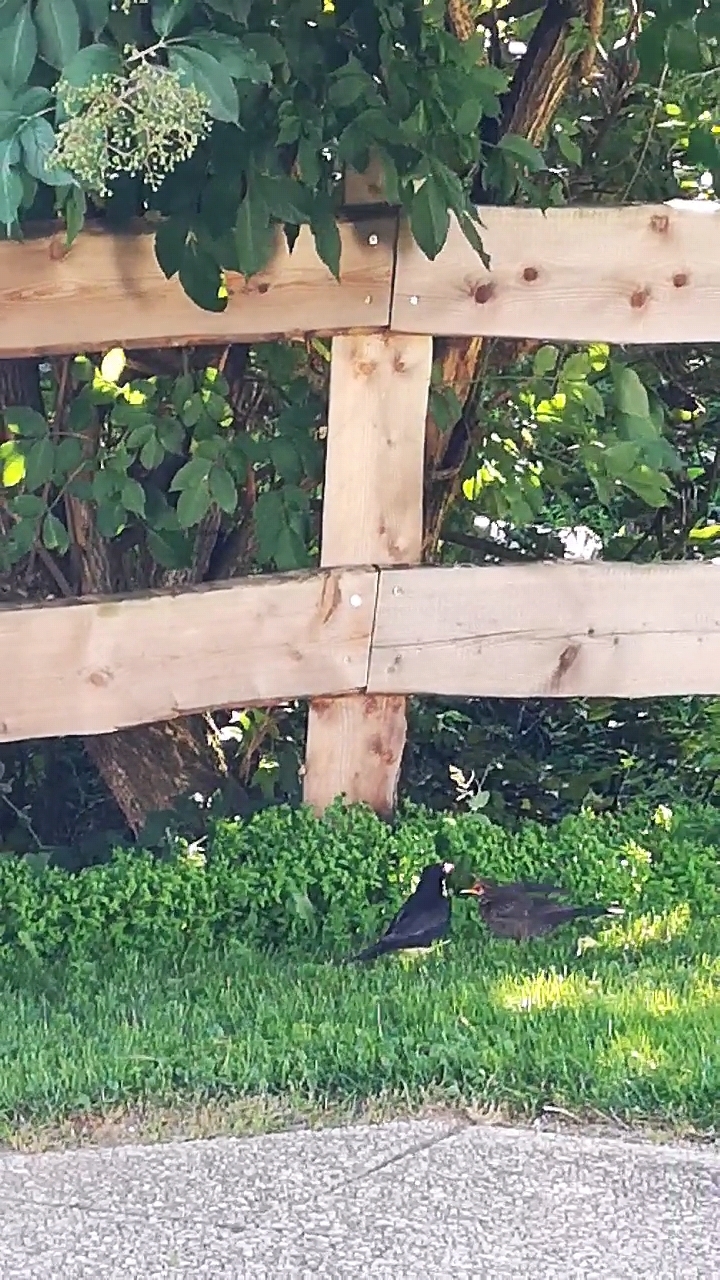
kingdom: Animalia
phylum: Chordata
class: Aves
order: Passeriformes
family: Turdidae
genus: Turdus
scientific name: Turdus merula
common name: Common blackbird
